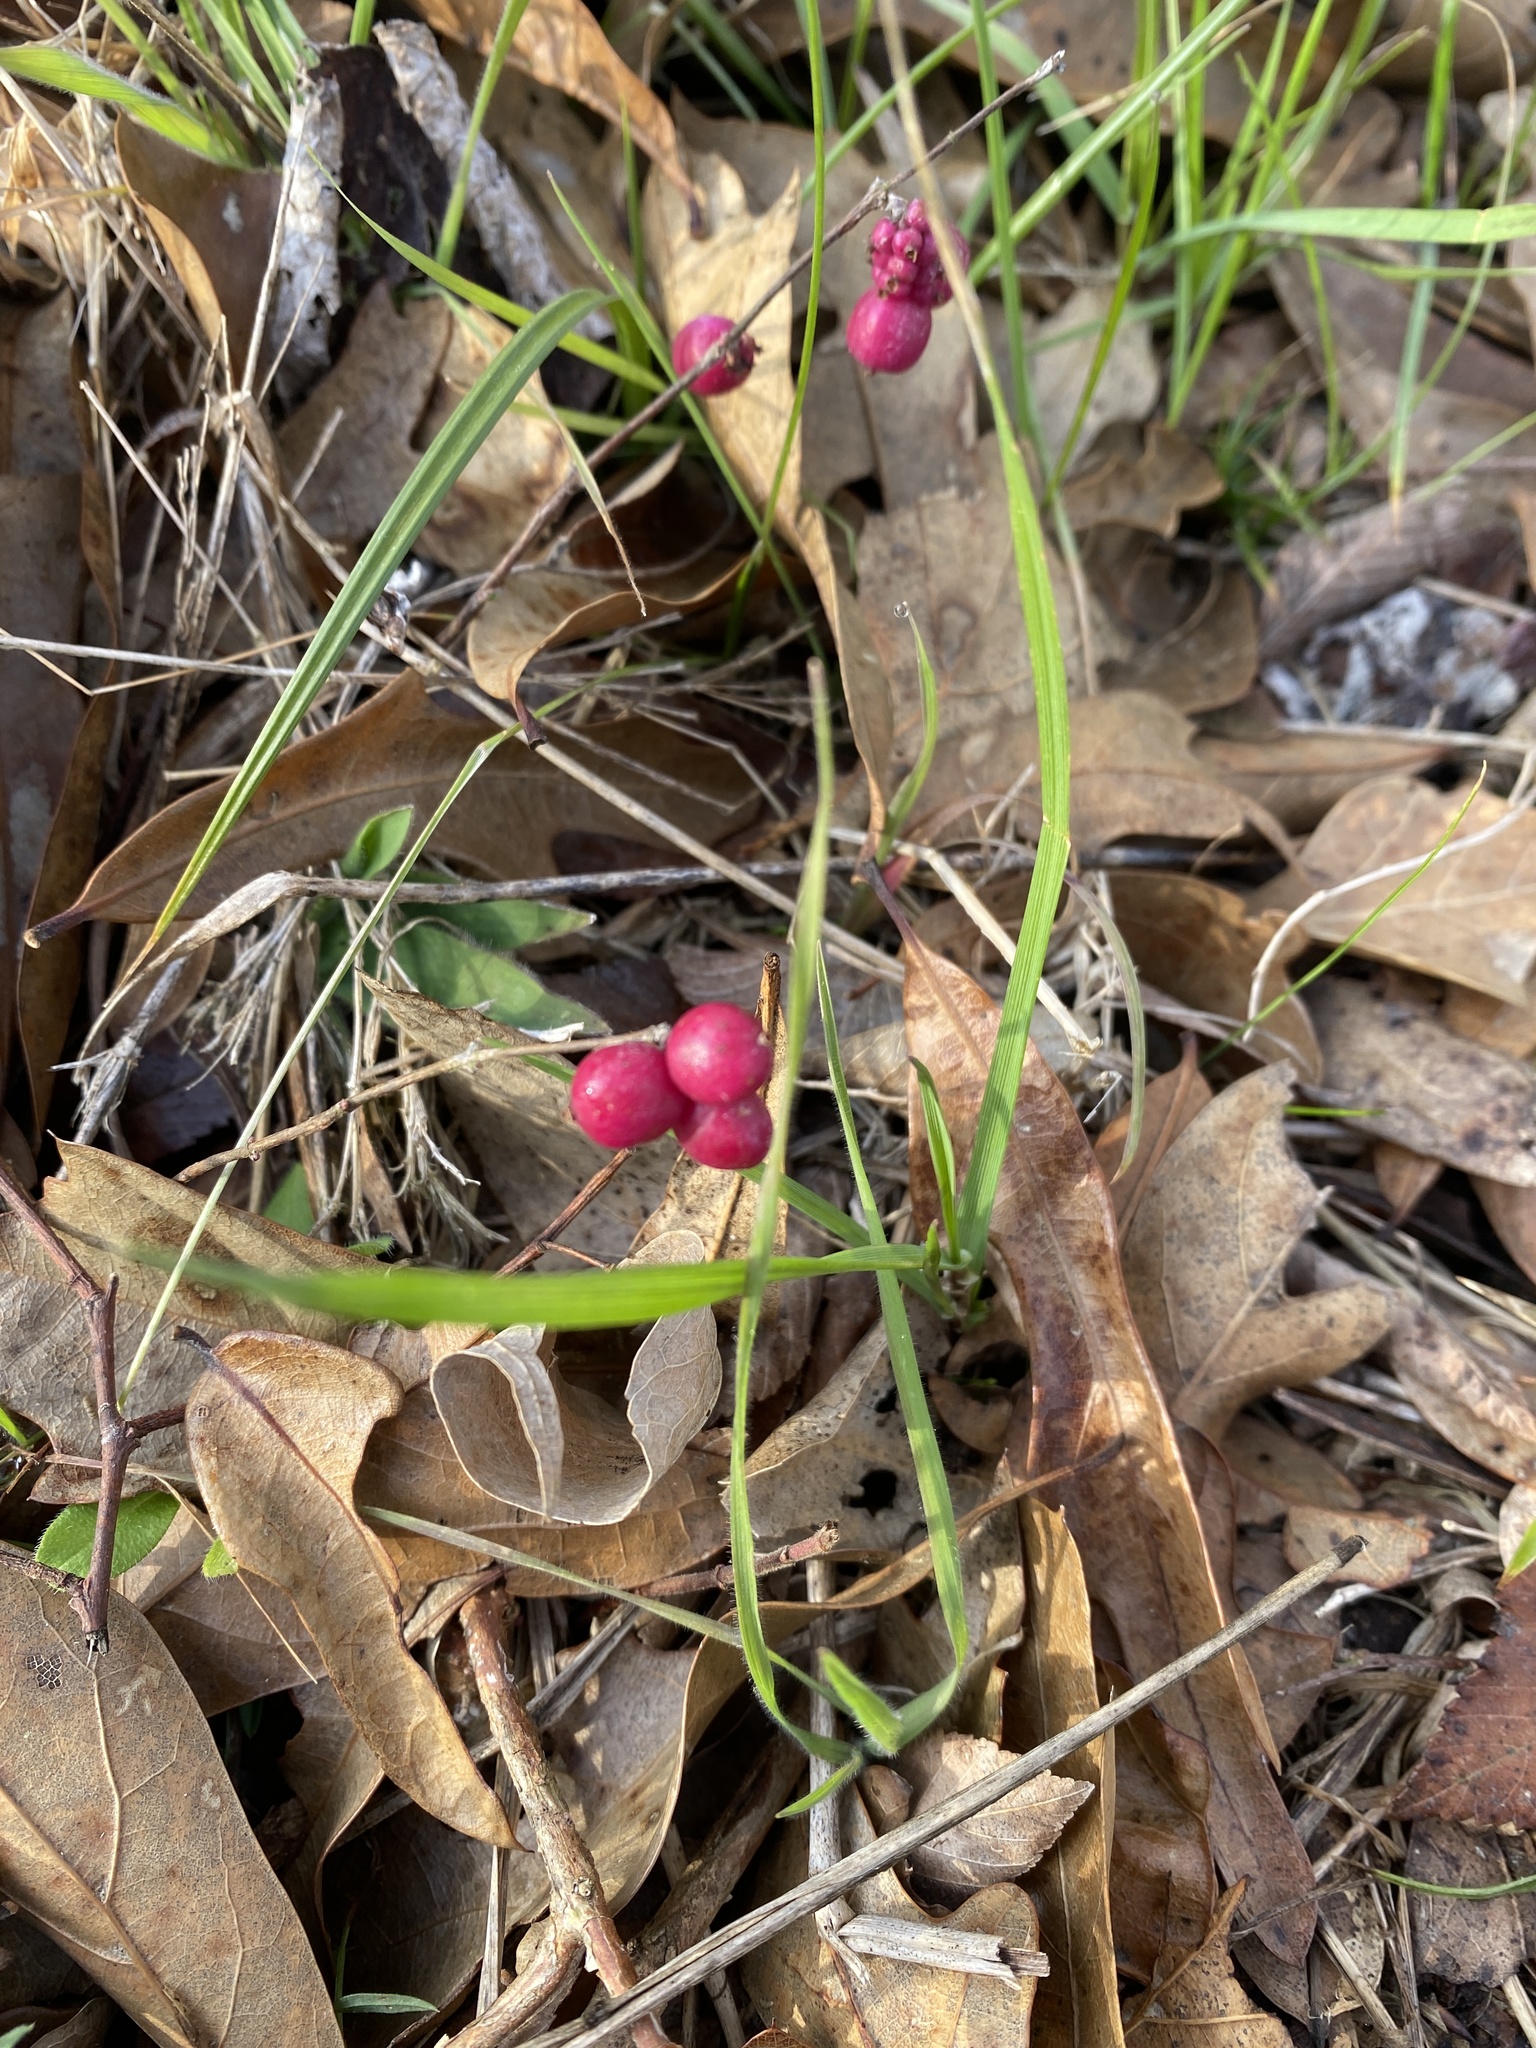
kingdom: Plantae
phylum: Tracheophyta
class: Magnoliopsida
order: Dipsacales
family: Caprifoliaceae
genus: Symphoricarpos
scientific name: Symphoricarpos orbiculatus
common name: Coralberry
